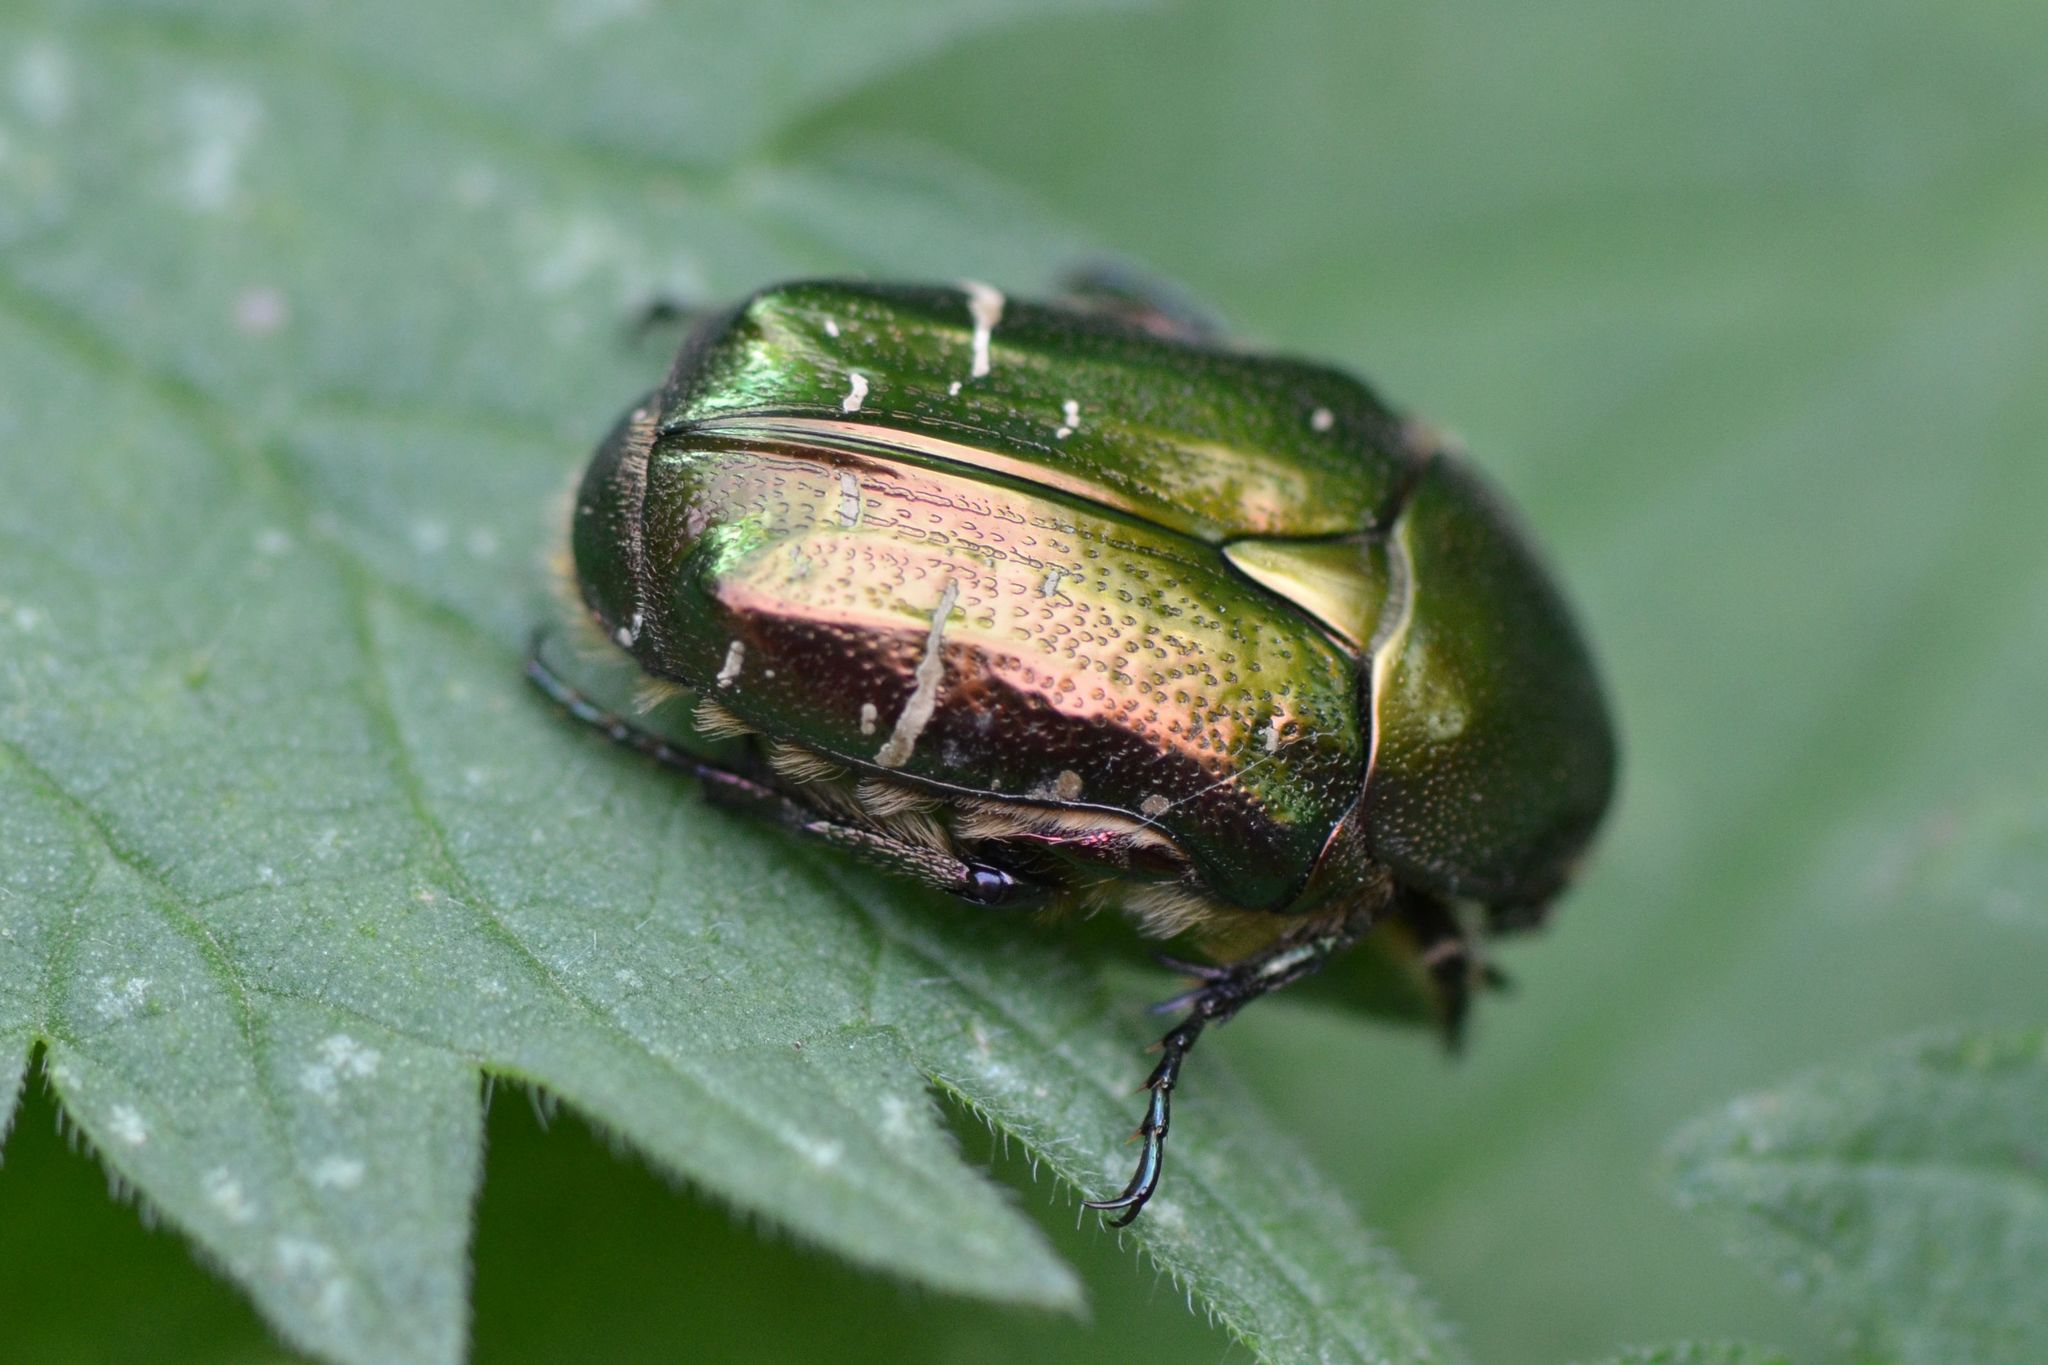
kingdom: Animalia
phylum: Arthropoda
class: Insecta
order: Coleoptera
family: Scarabaeidae
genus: Cetonia
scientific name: Cetonia aurata
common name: Rose chafer
